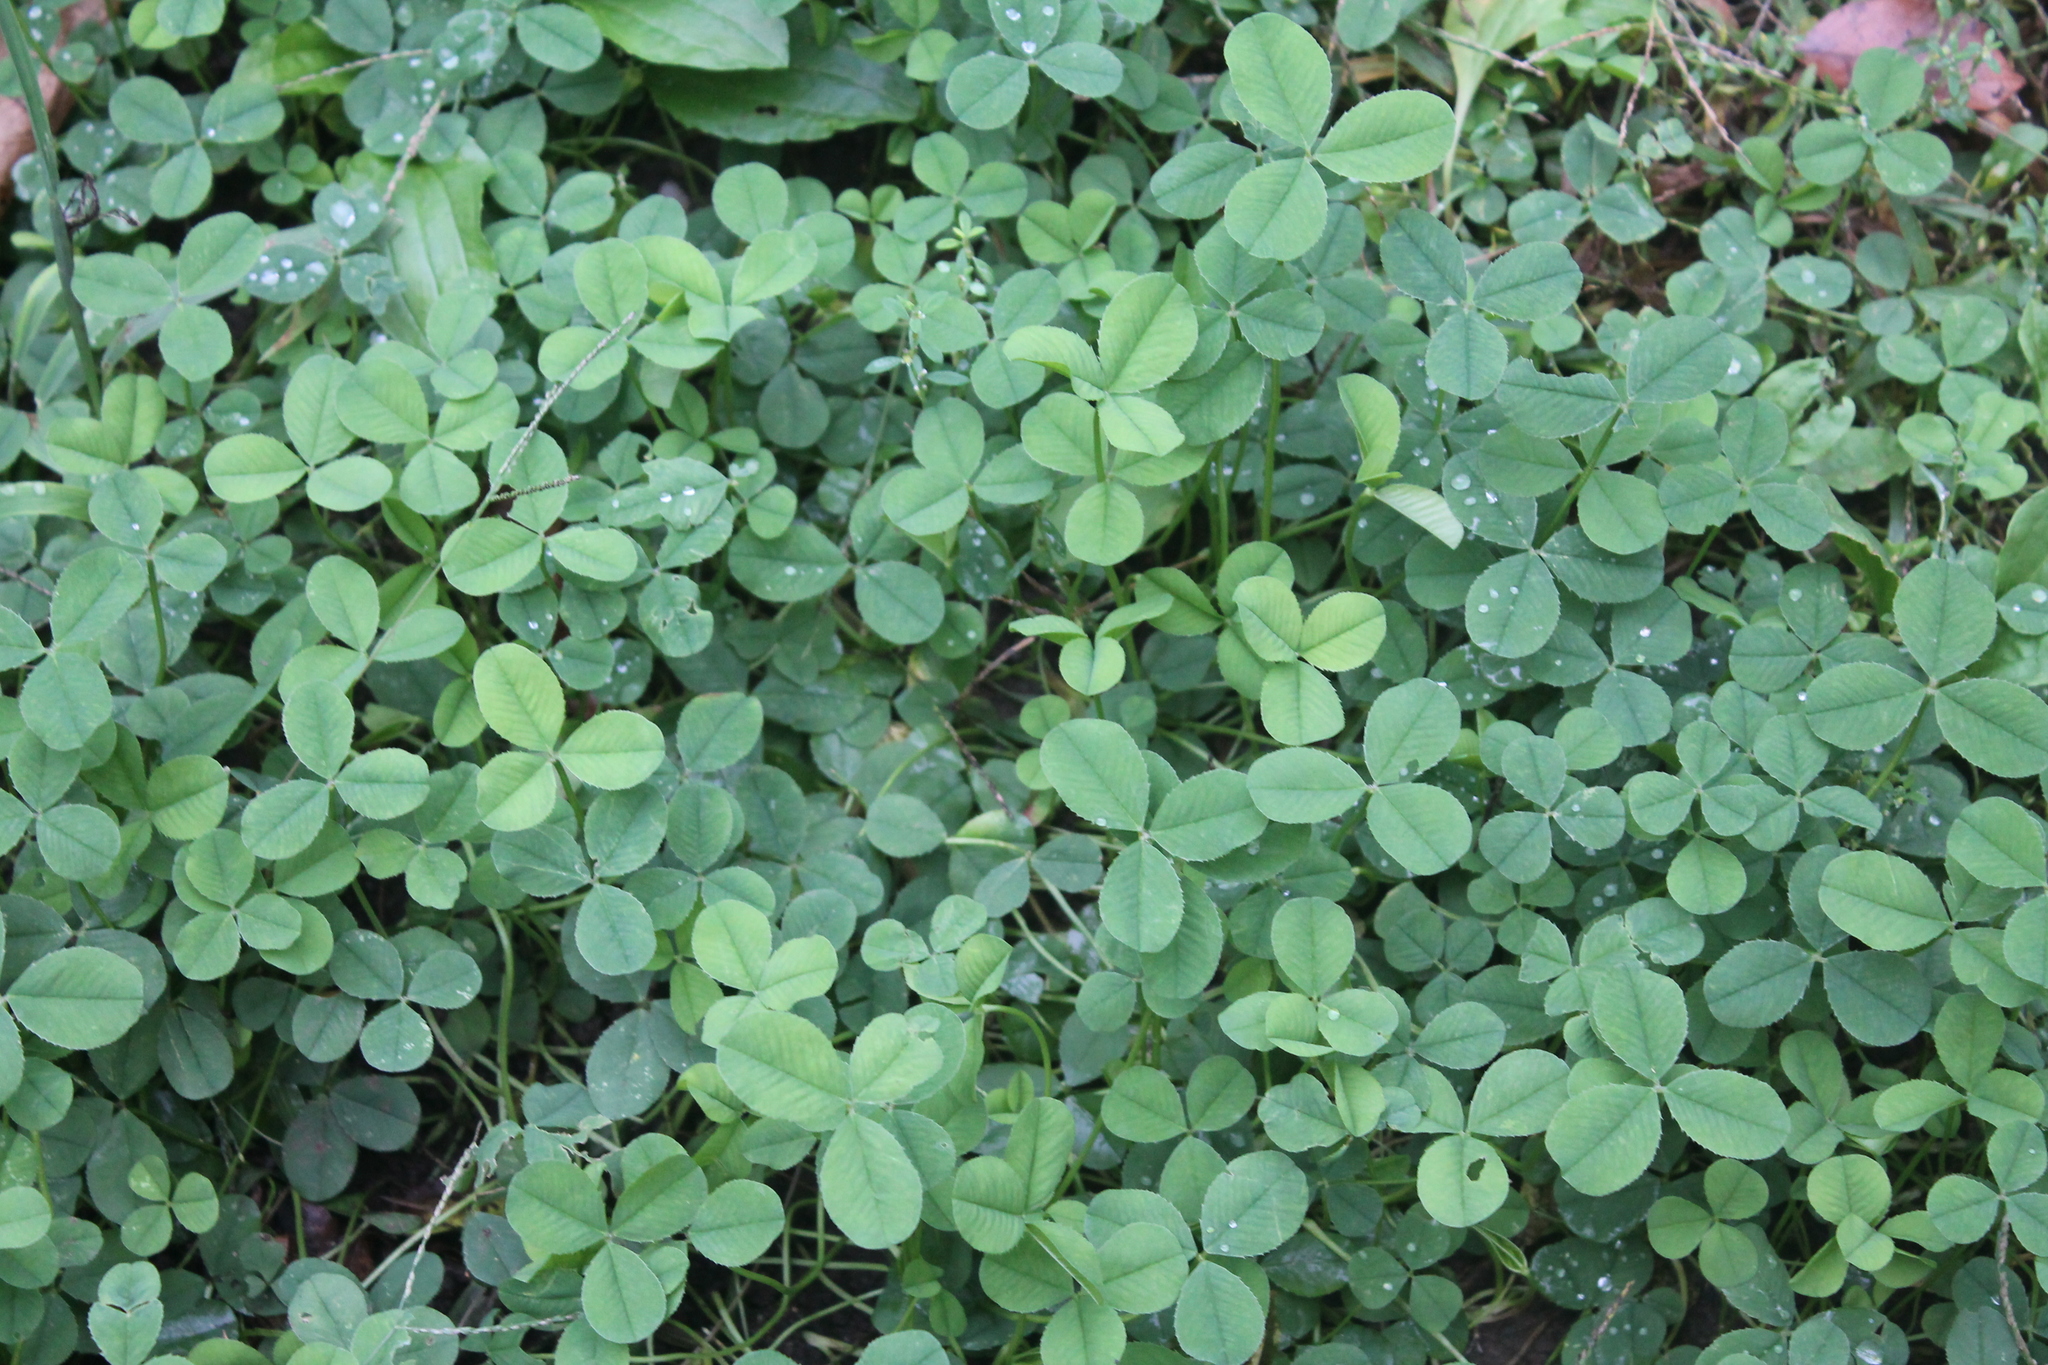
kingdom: Plantae
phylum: Tracheophyta
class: Magnoliopsida
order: Fabales
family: Fabaceae
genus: Trifolium
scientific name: Trifolium repens
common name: White clover
